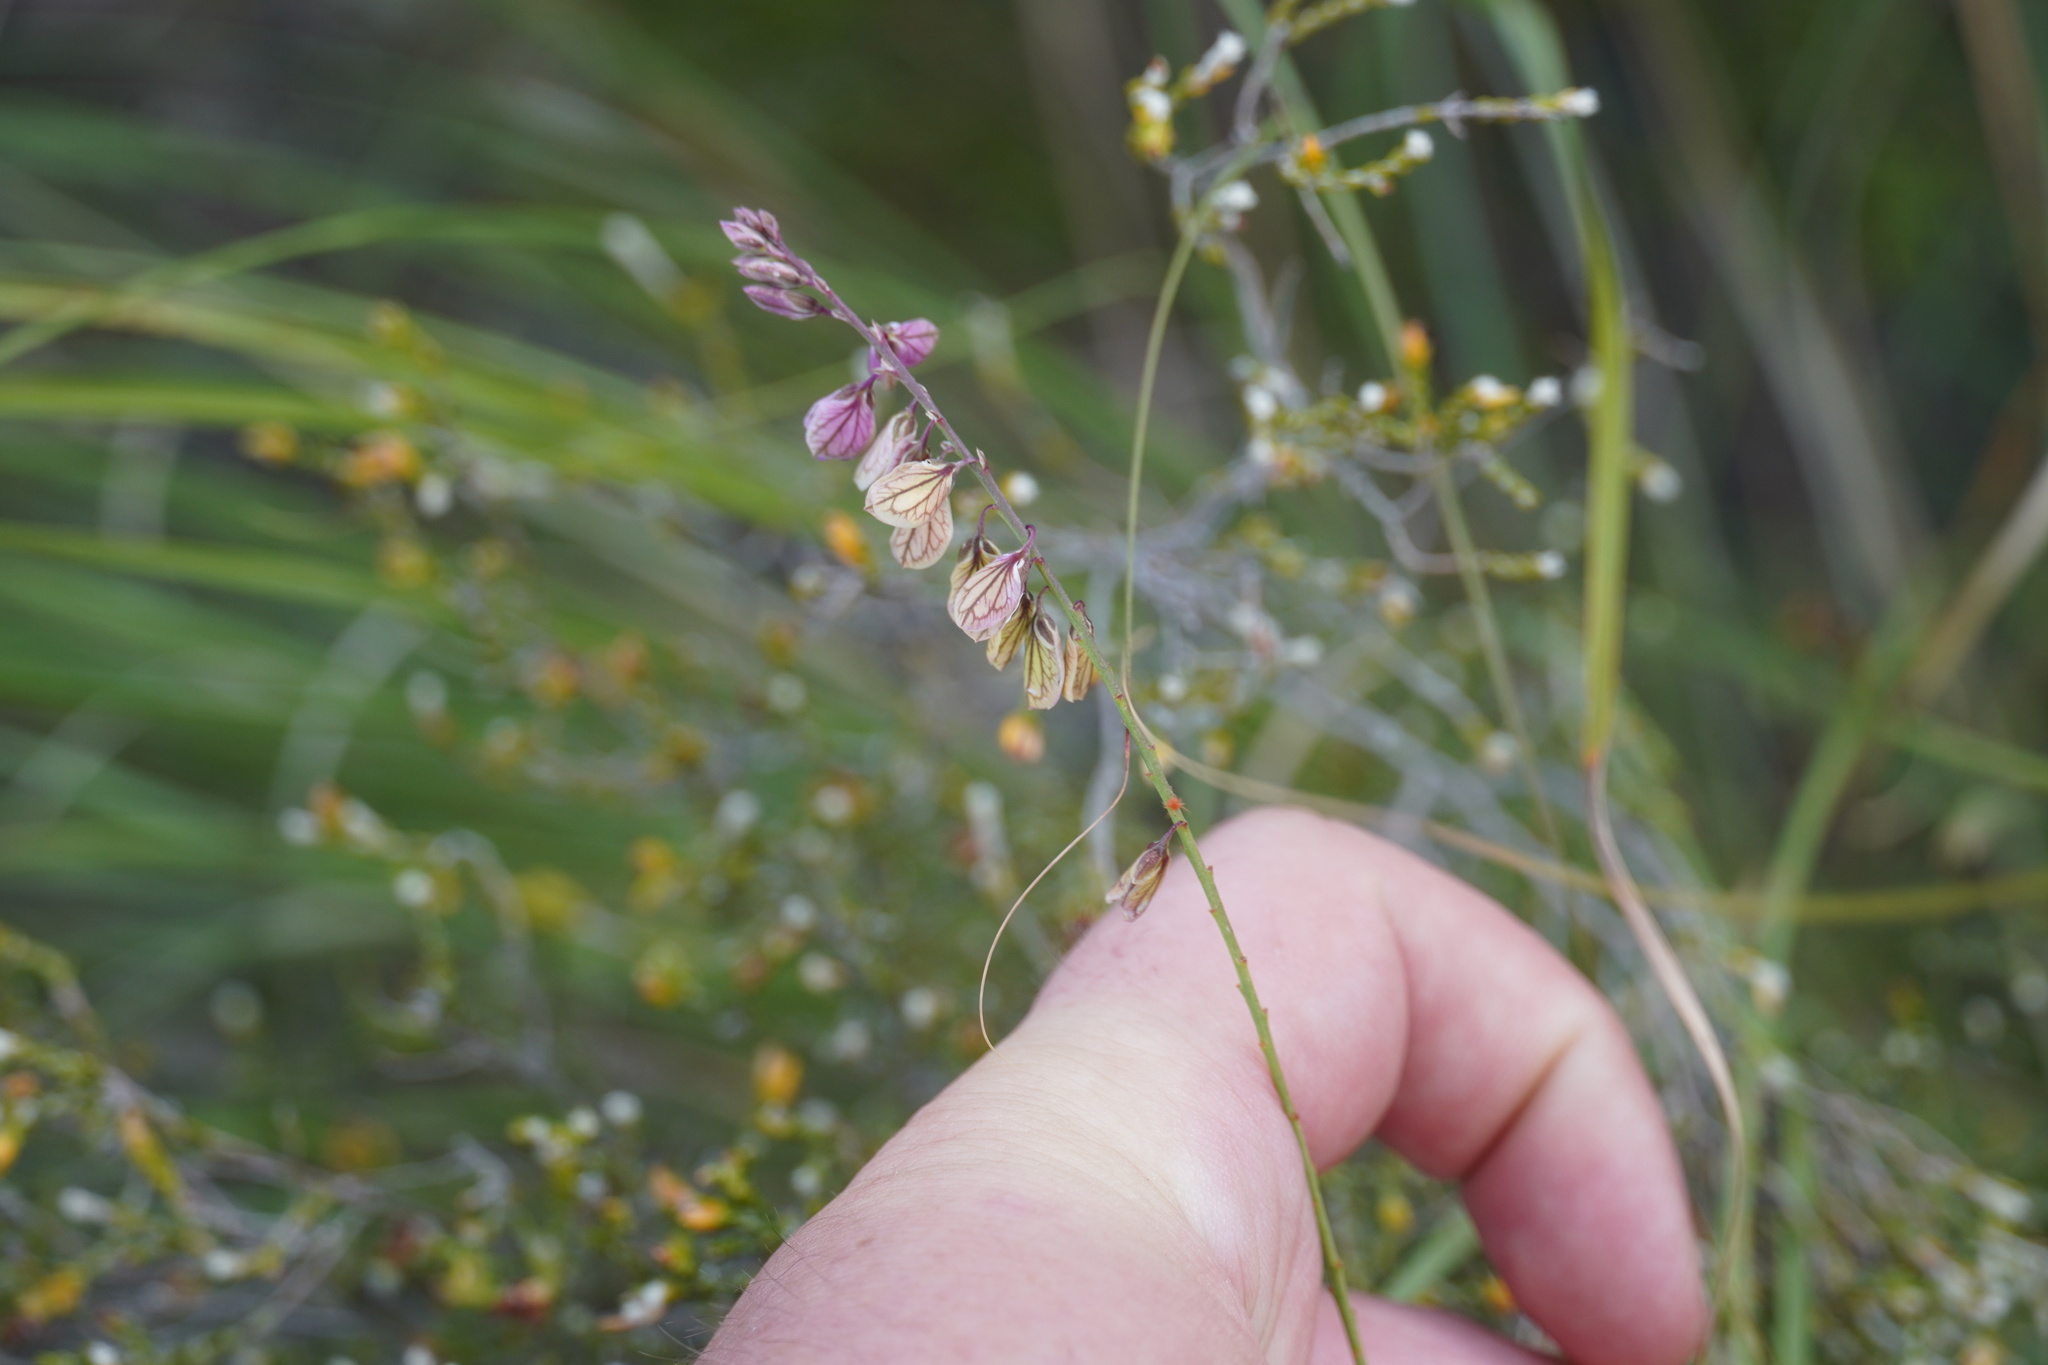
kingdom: Plantae
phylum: Tracheophyta
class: Magnoliopsida
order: Fabales
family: Polygalaceae
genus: Polygala
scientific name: Polygala hottentotta
